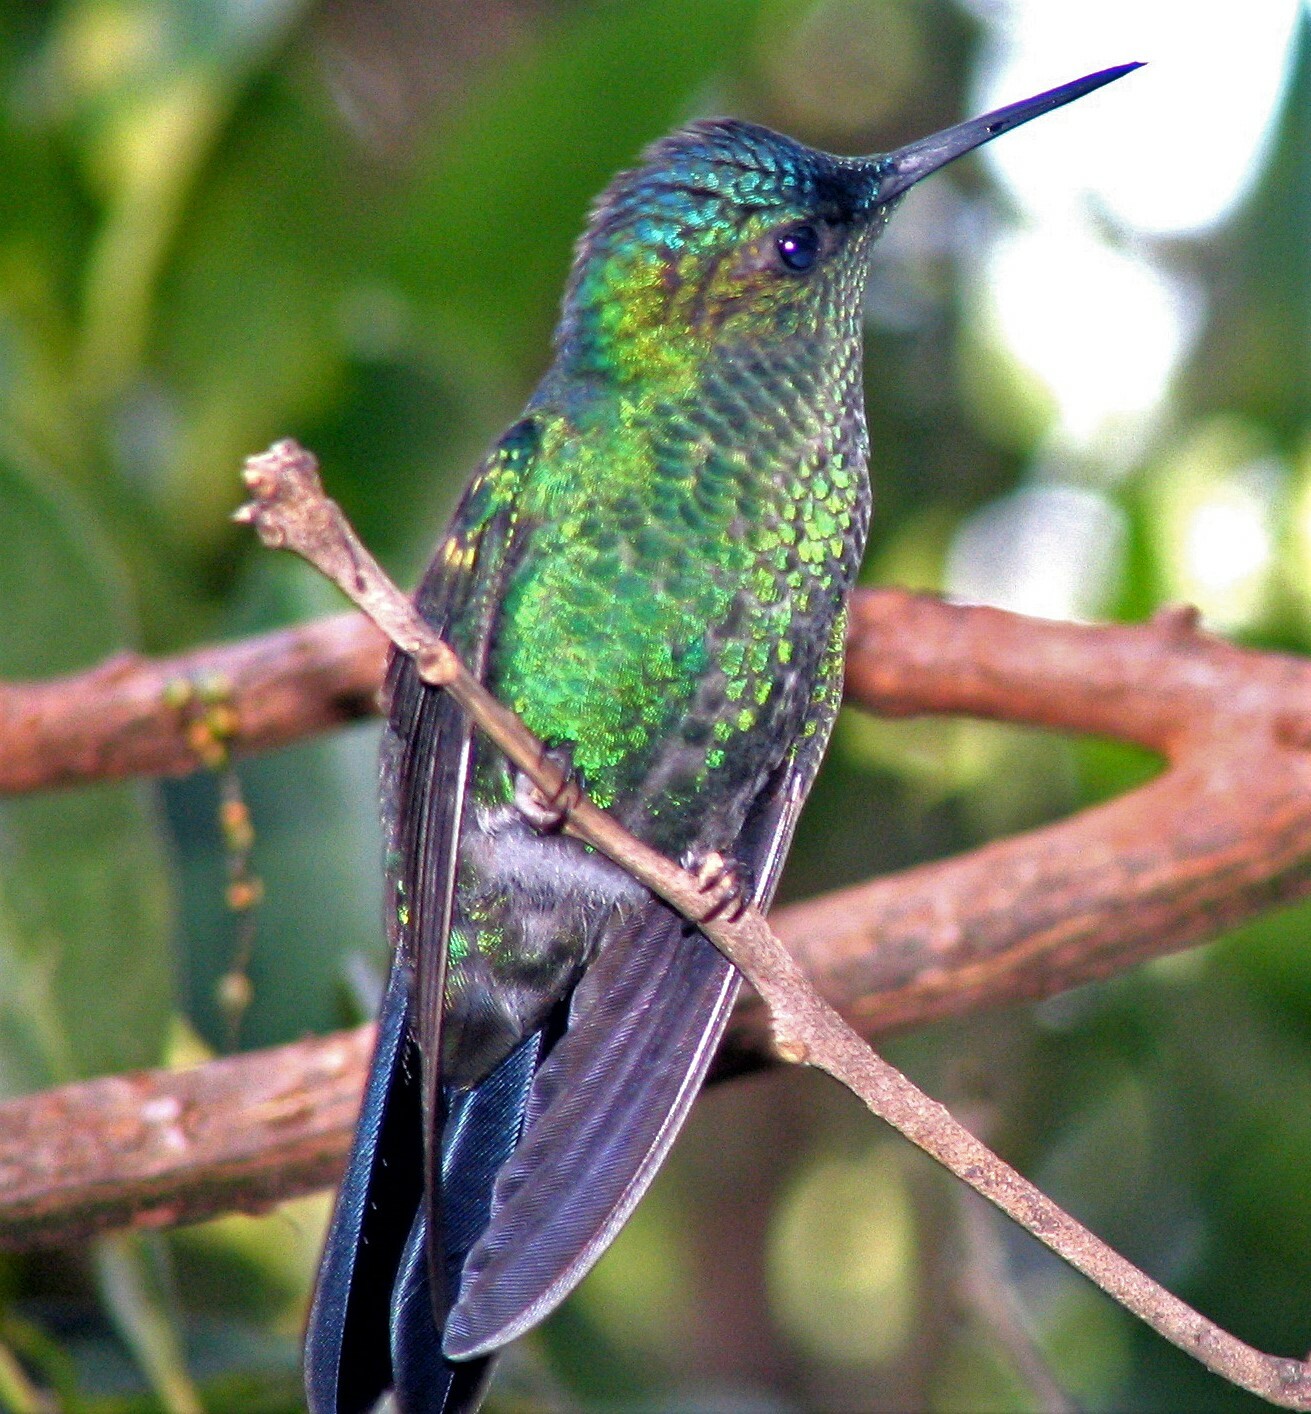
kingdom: Animalia
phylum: Chordata
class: Aves
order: Apodiformes
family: Trochilidae
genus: Thalurania
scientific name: Thalurania glaucopis
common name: Violet-capped woodnymph
